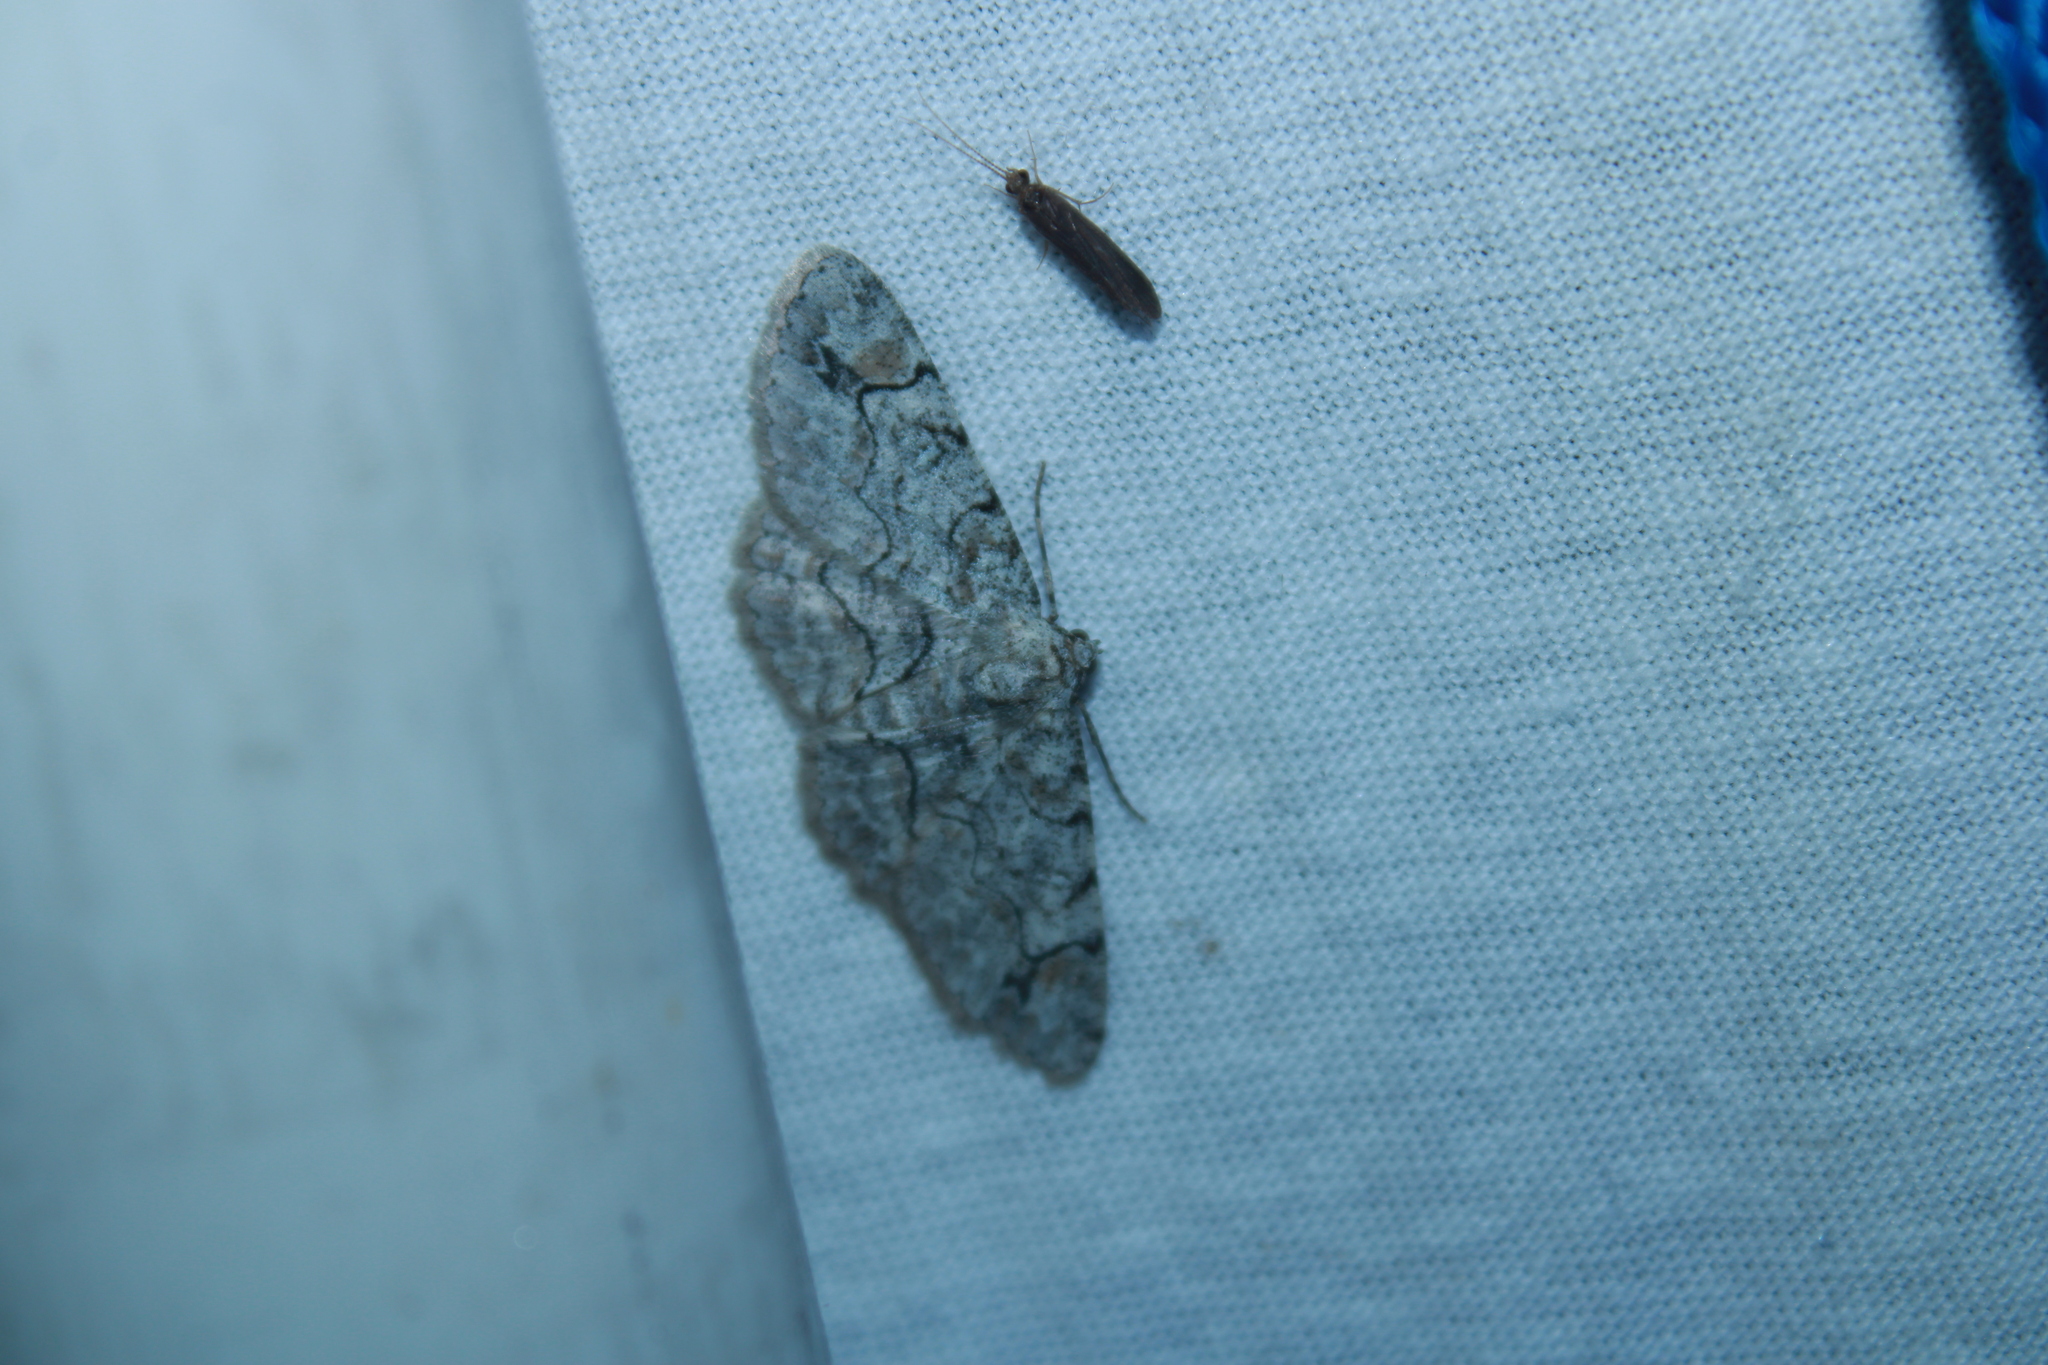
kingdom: Animalia
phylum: Arthropoda
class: Insecta
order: Lepidoptera
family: Geometridae
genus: Iridopsis
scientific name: Iridopsis larvaria
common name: Bent-line gray
